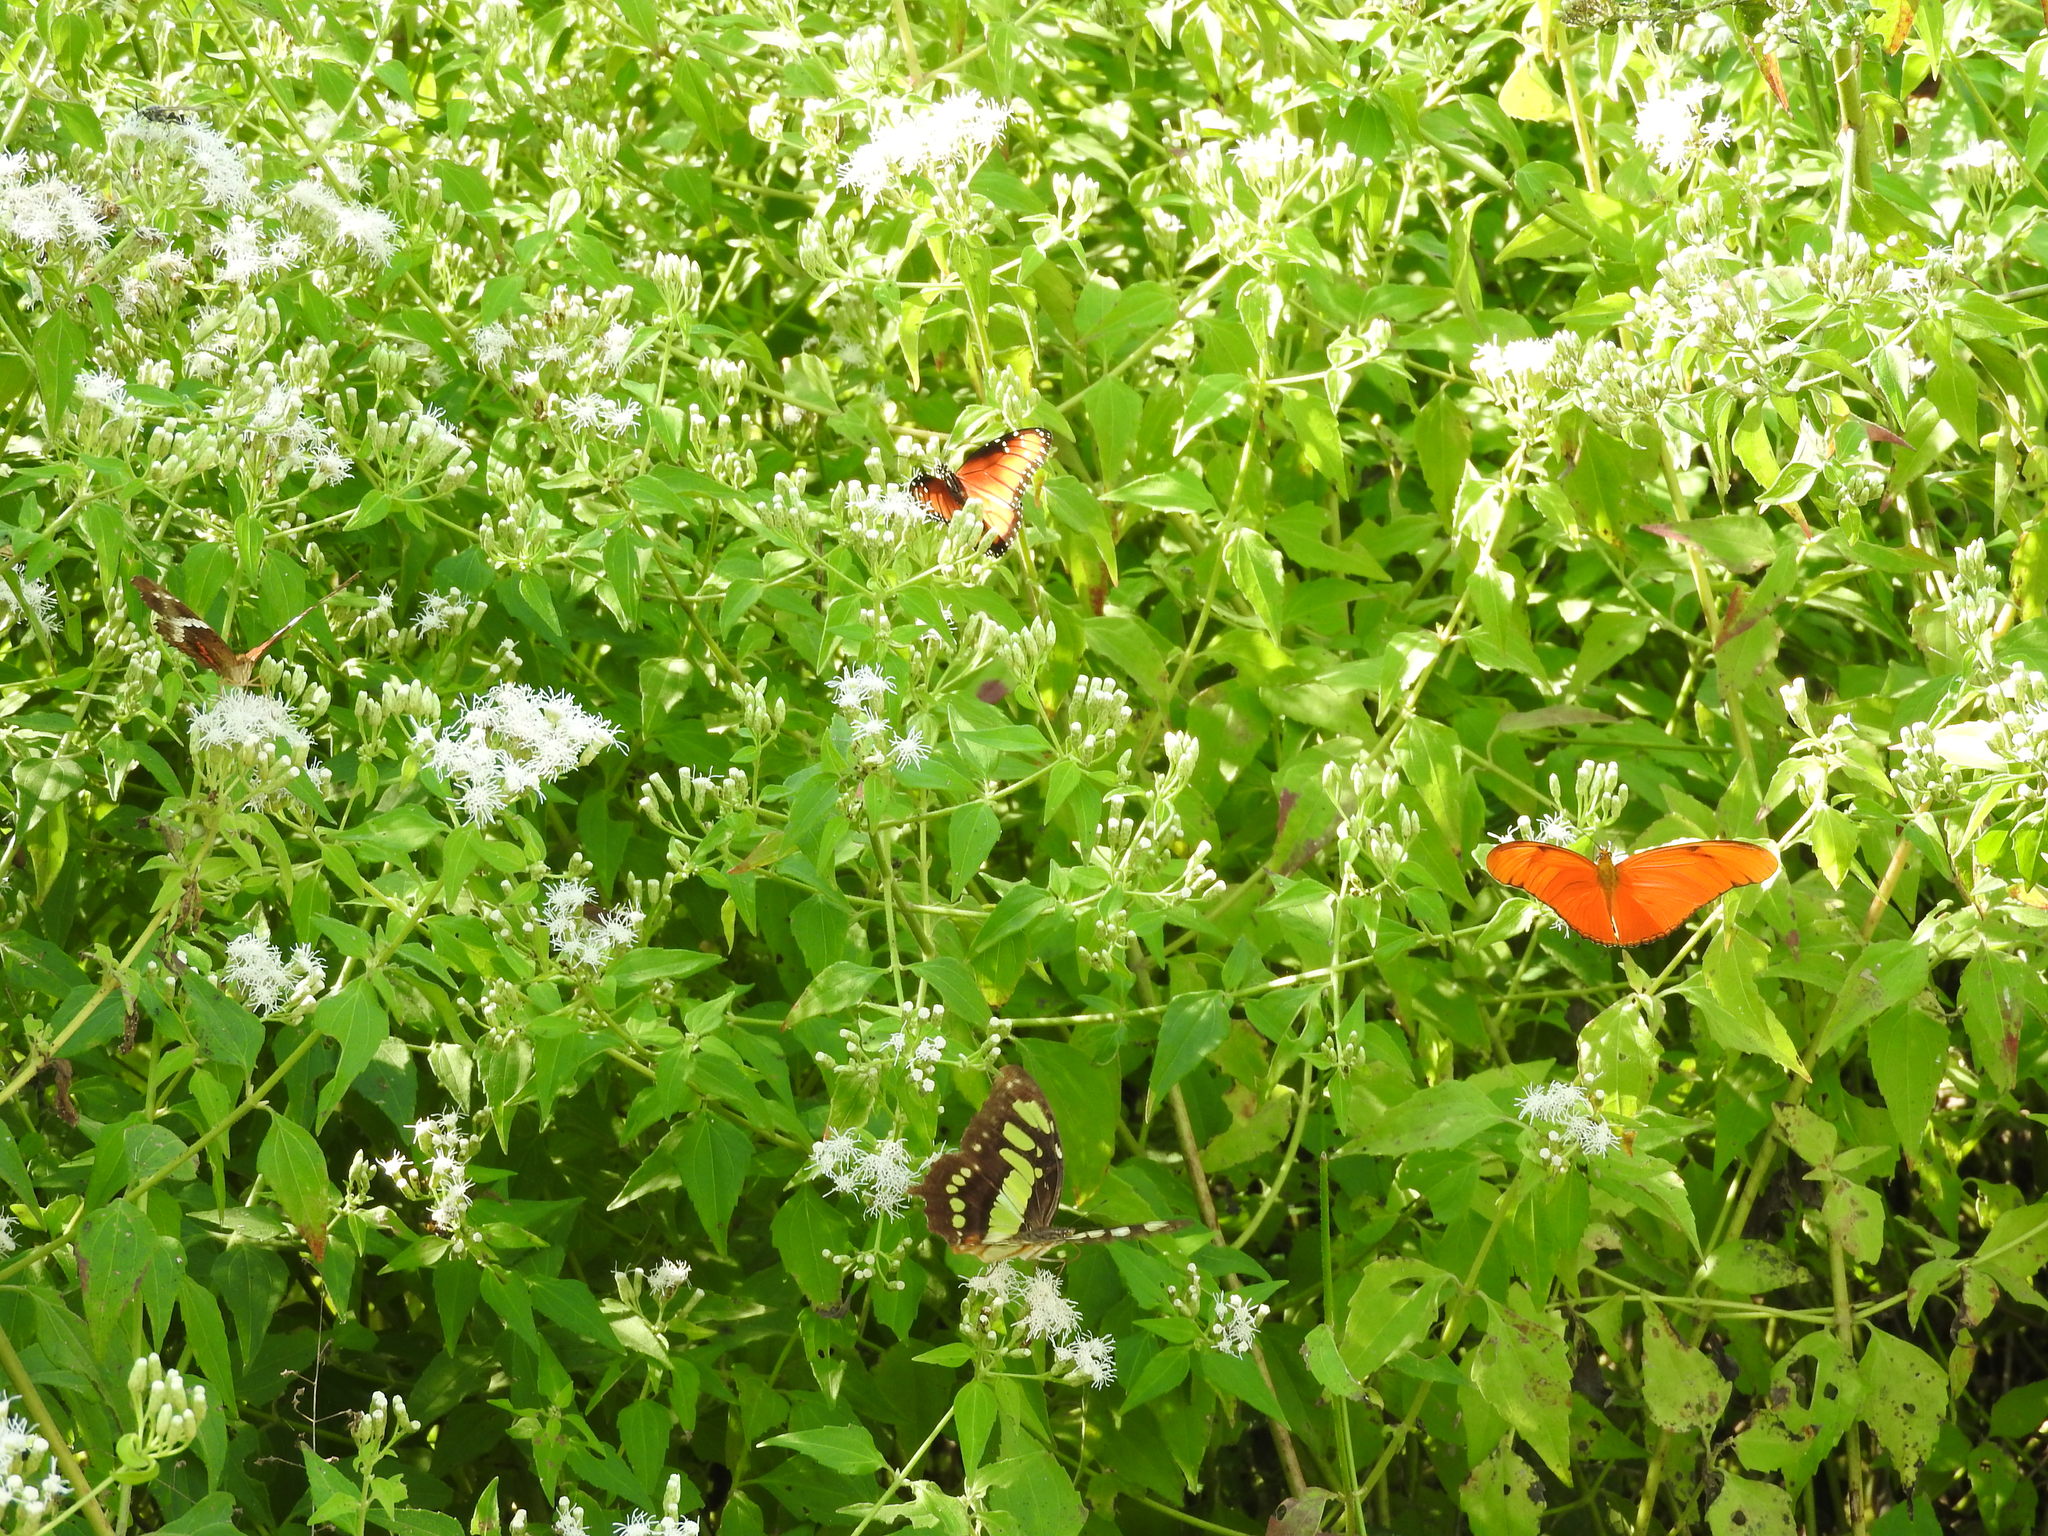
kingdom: Plantae
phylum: Tracheophyta
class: Magnoliopsida
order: Asterales
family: Asteraceae
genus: Chromolaena
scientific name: Chromolaena odorata
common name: Siamweed
